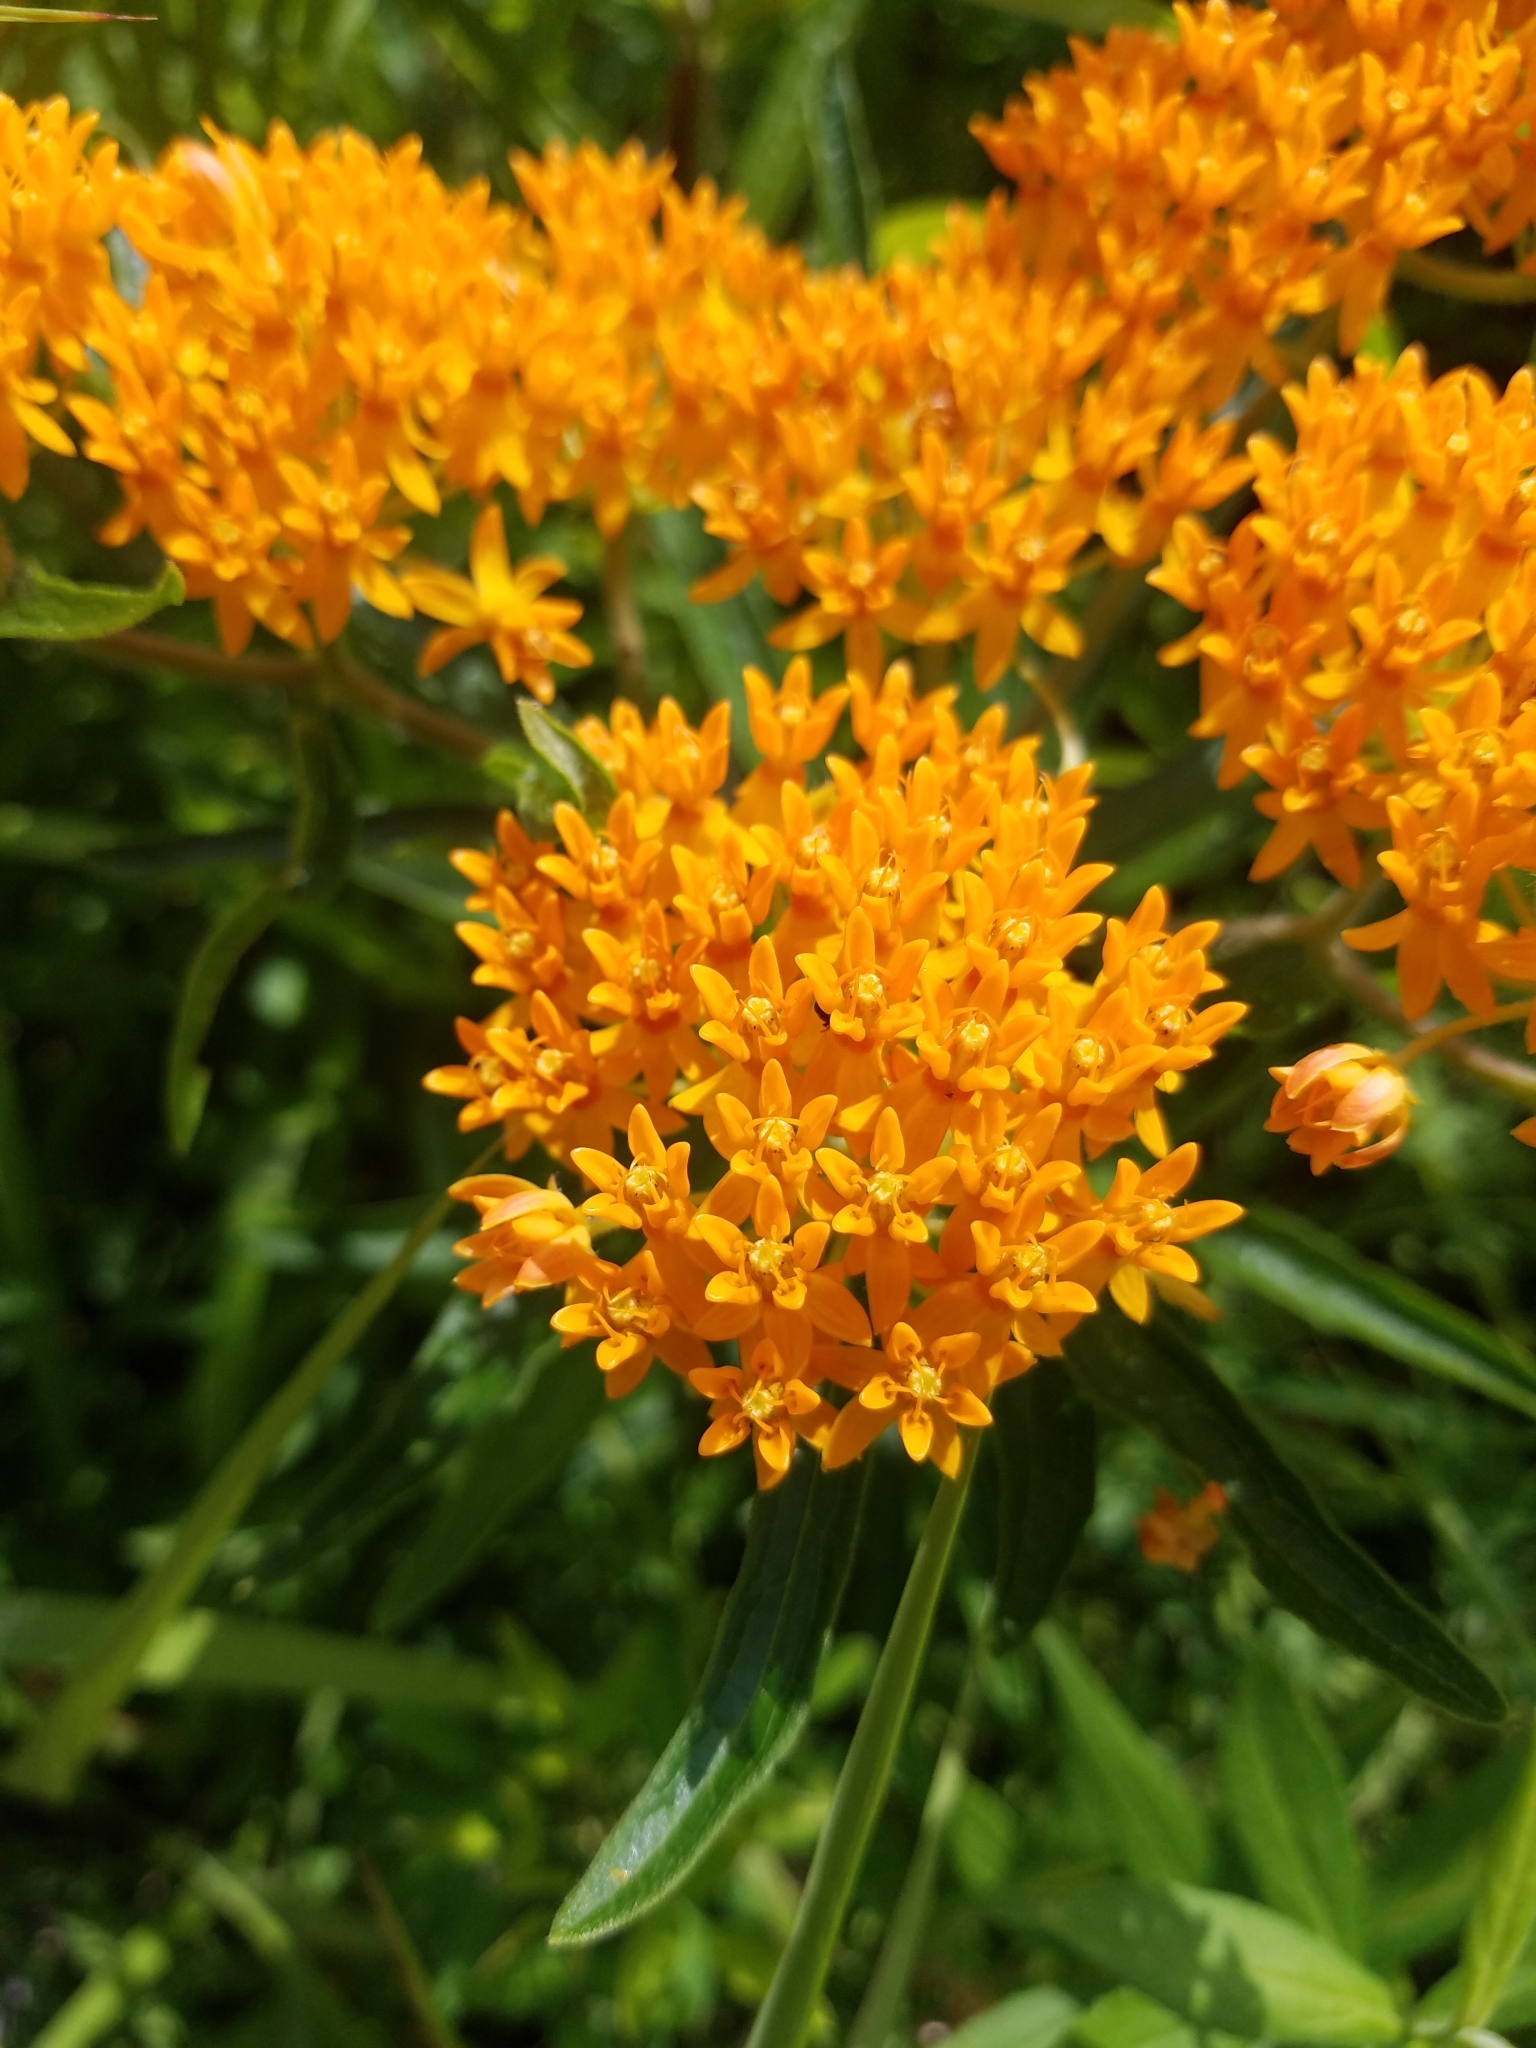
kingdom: Plantae
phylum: Tracheophyta
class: Magnoliopsida
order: Gentianales
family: Apocynaceae
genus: Asclepias
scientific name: Asclepias tuberosa
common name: Butterfly milkweed
